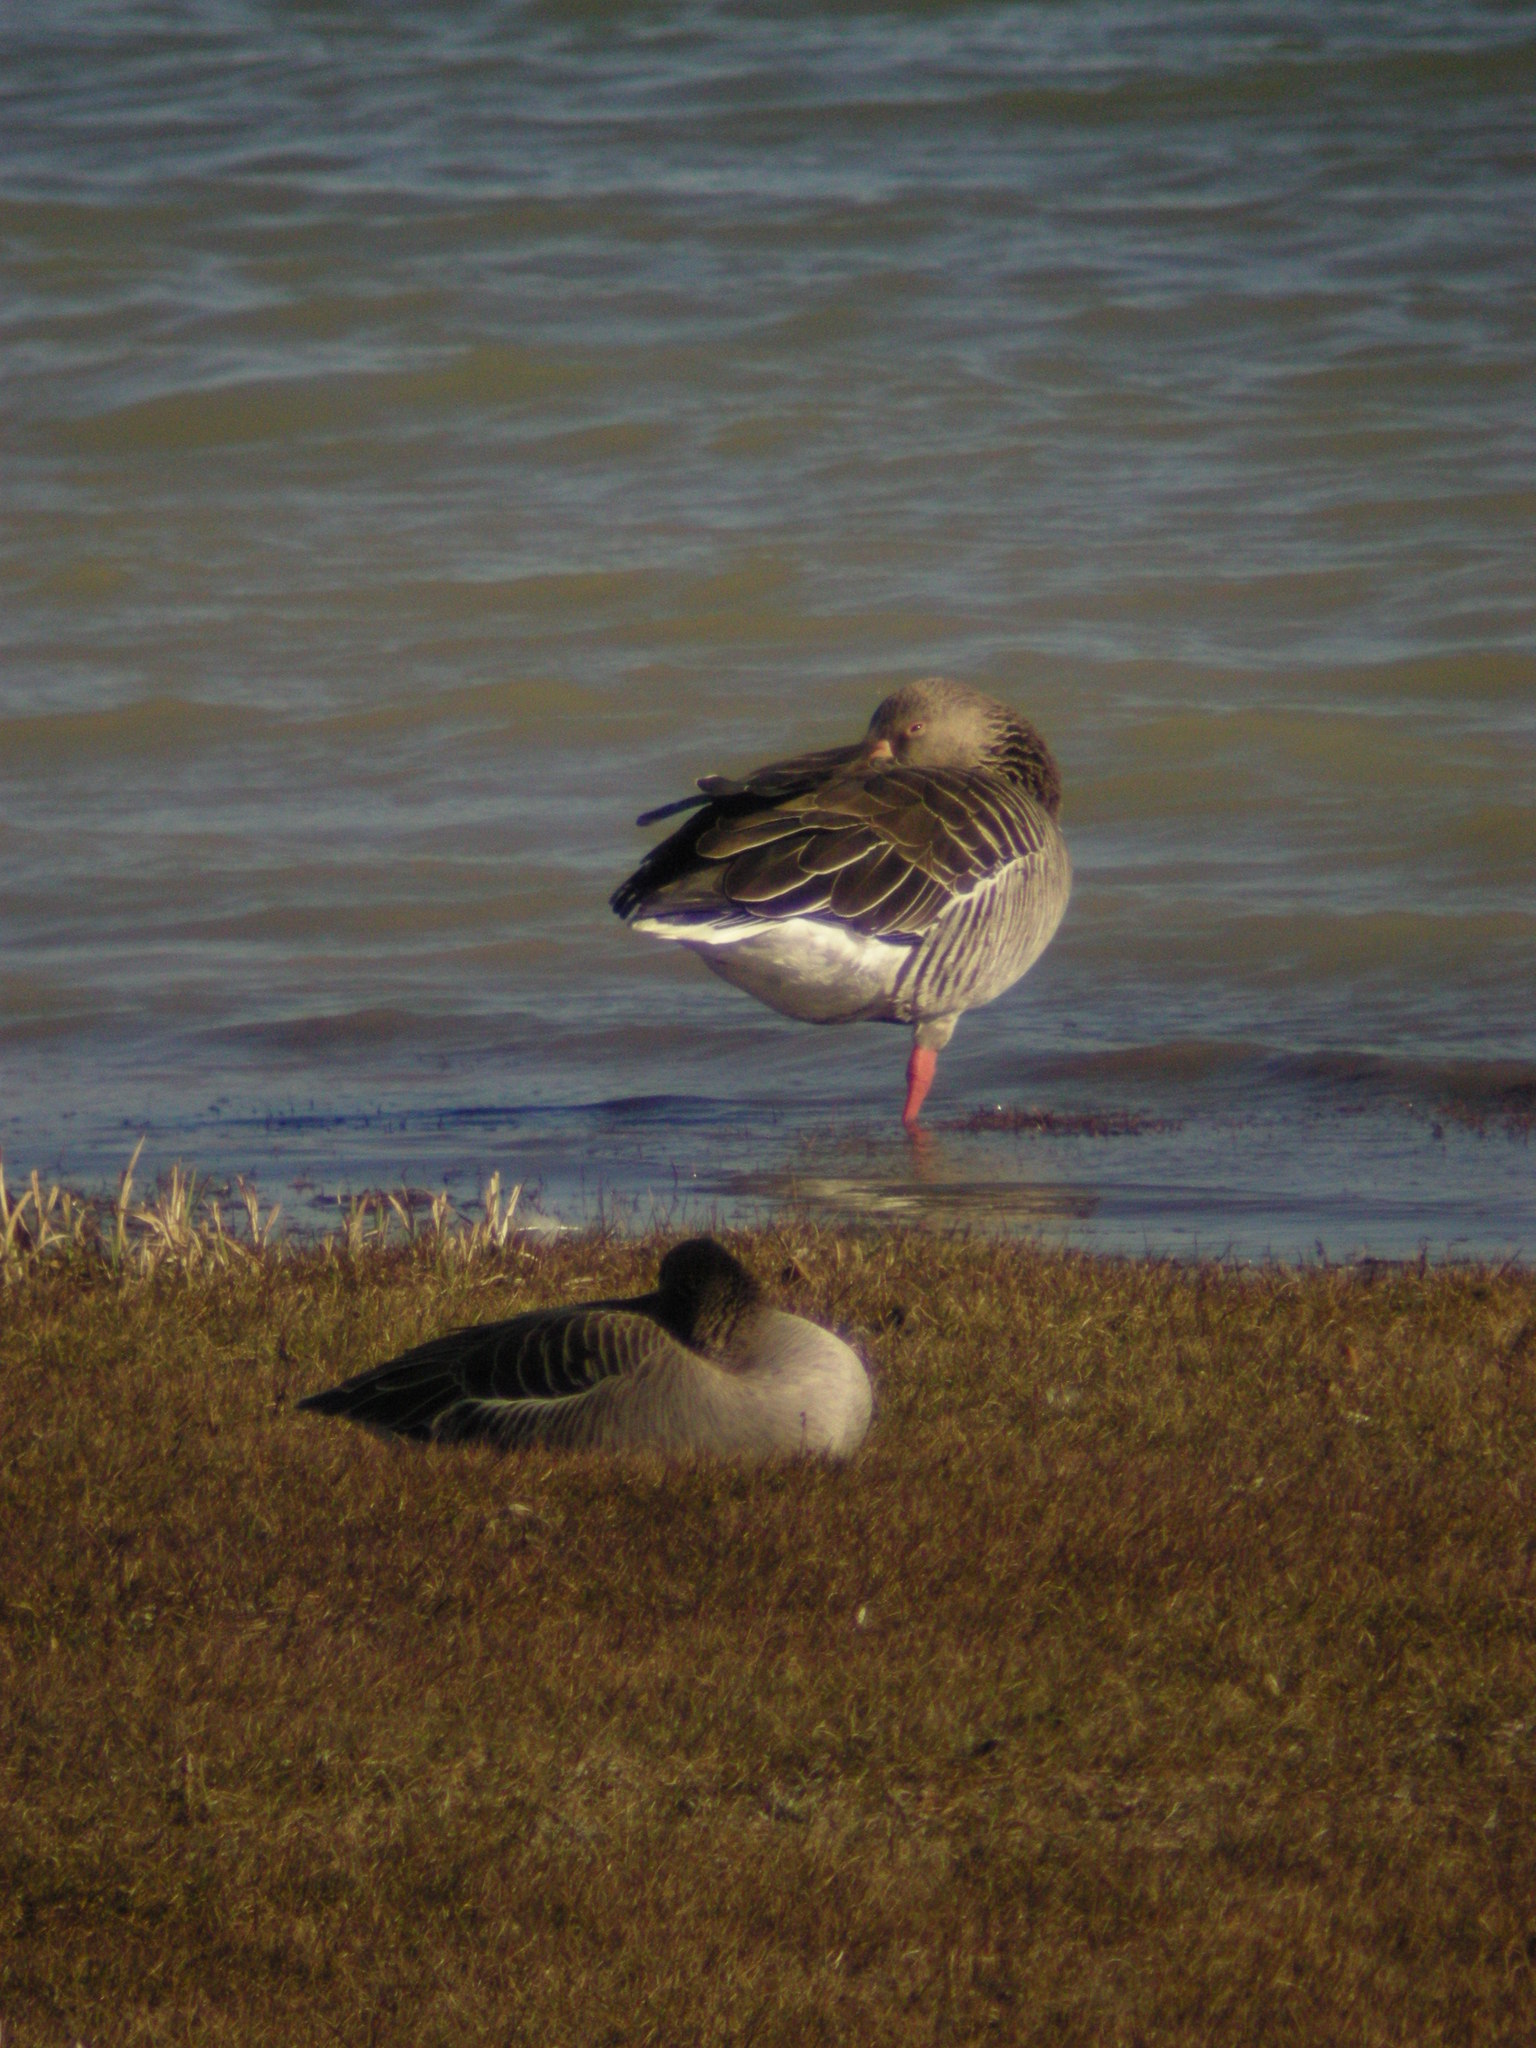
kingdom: Animalia
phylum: Chordata
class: Aves
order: Anseriformes
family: Anatidae
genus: Anser
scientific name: Anser anser
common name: Greylag goose
